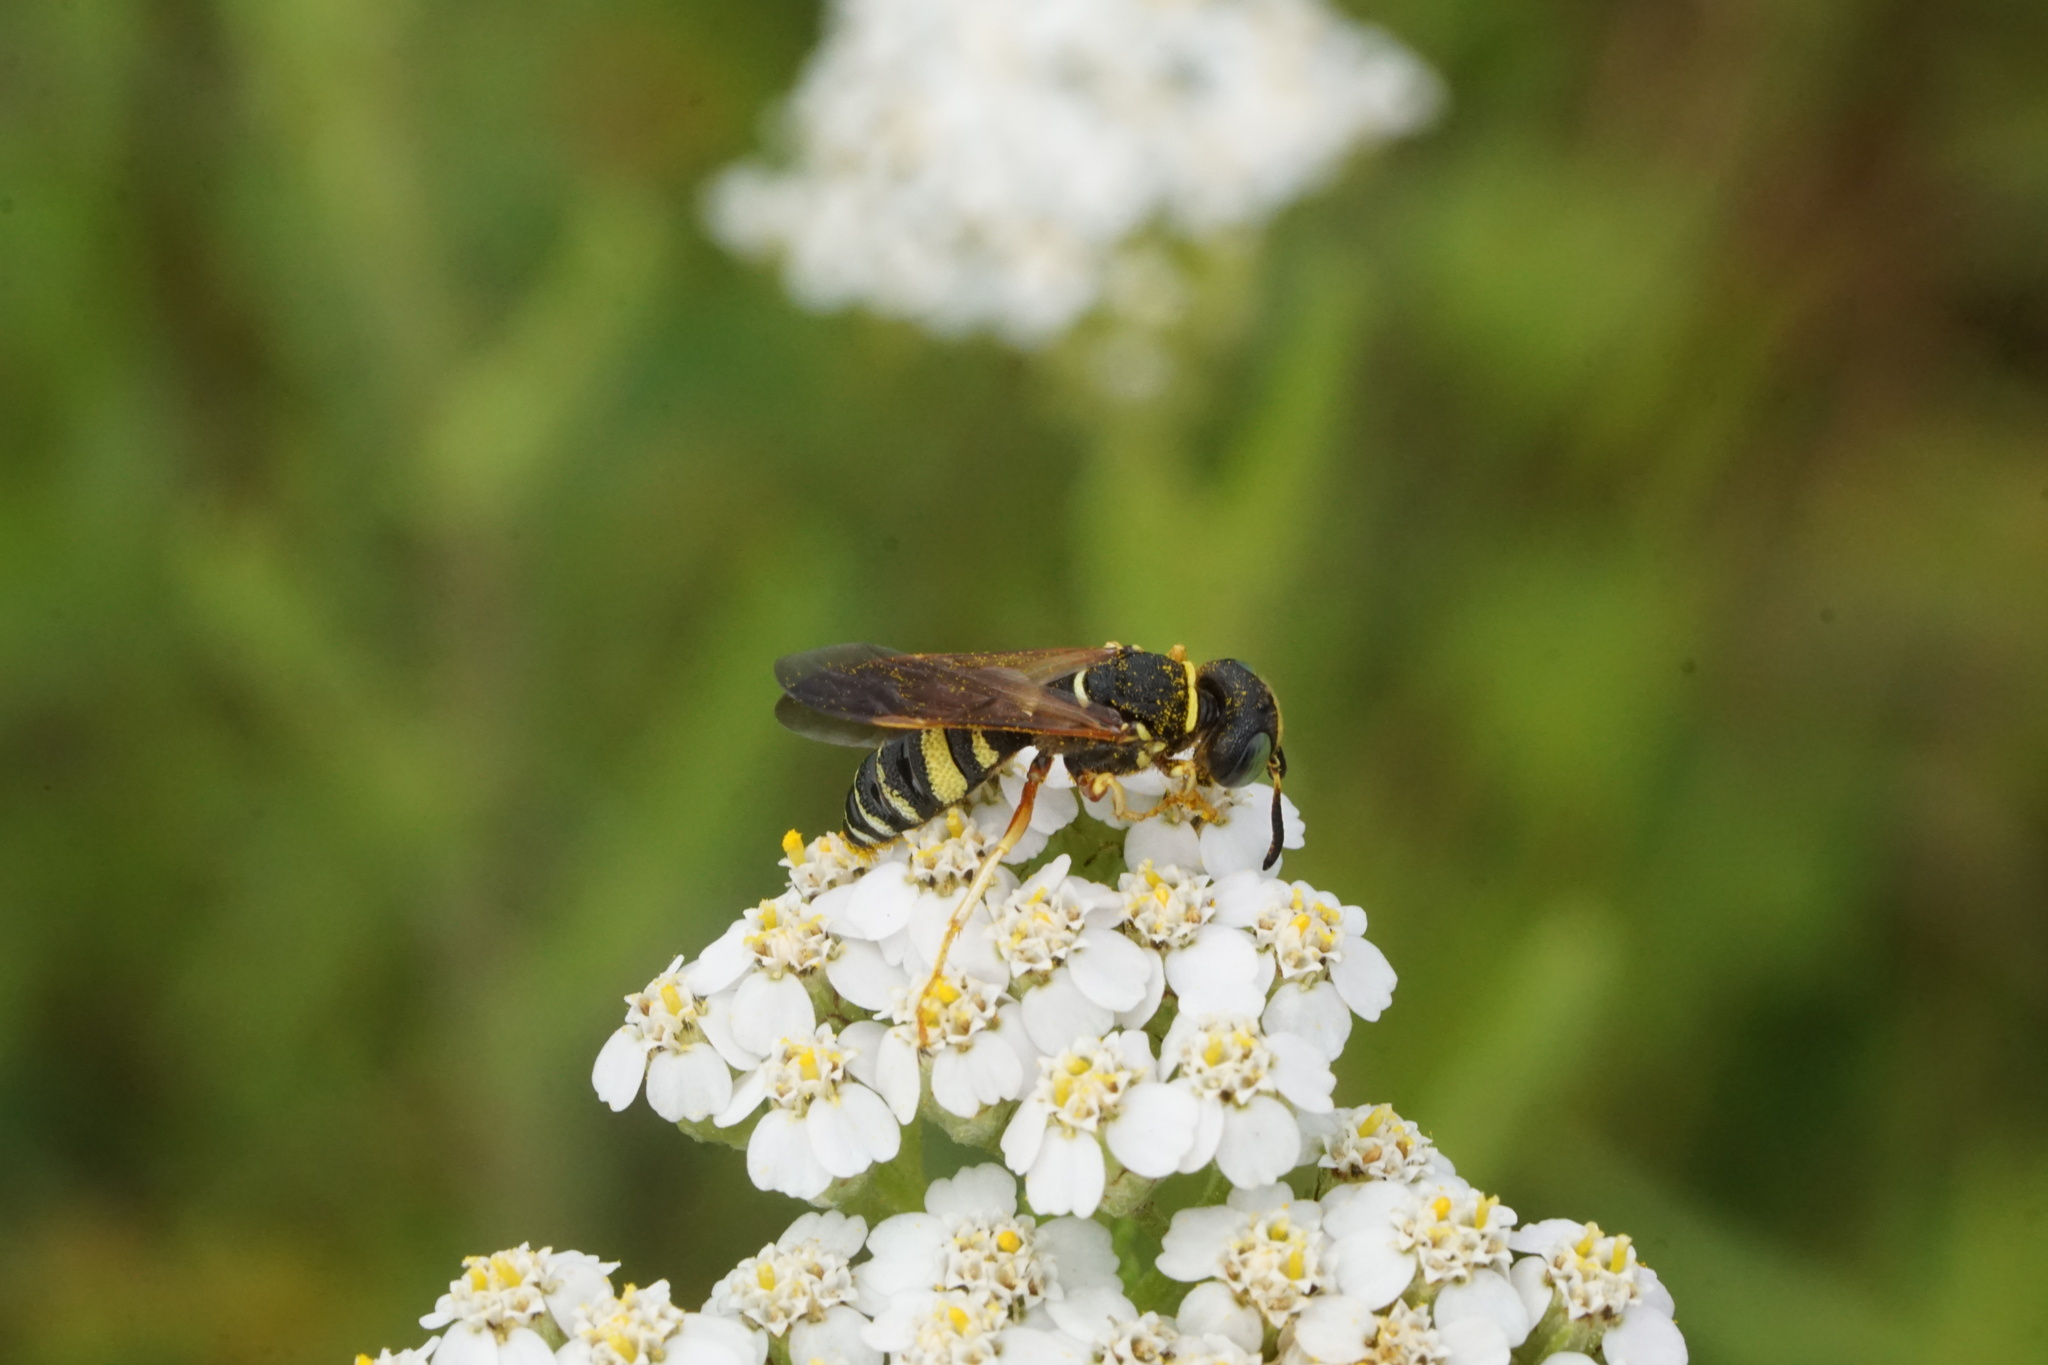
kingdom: Animalia
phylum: Arthropoda
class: Insecta
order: Hymenoptera
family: Crabronidae
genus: Philanthus
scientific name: Philanthus ventilabris
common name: Bee-killer wasp
